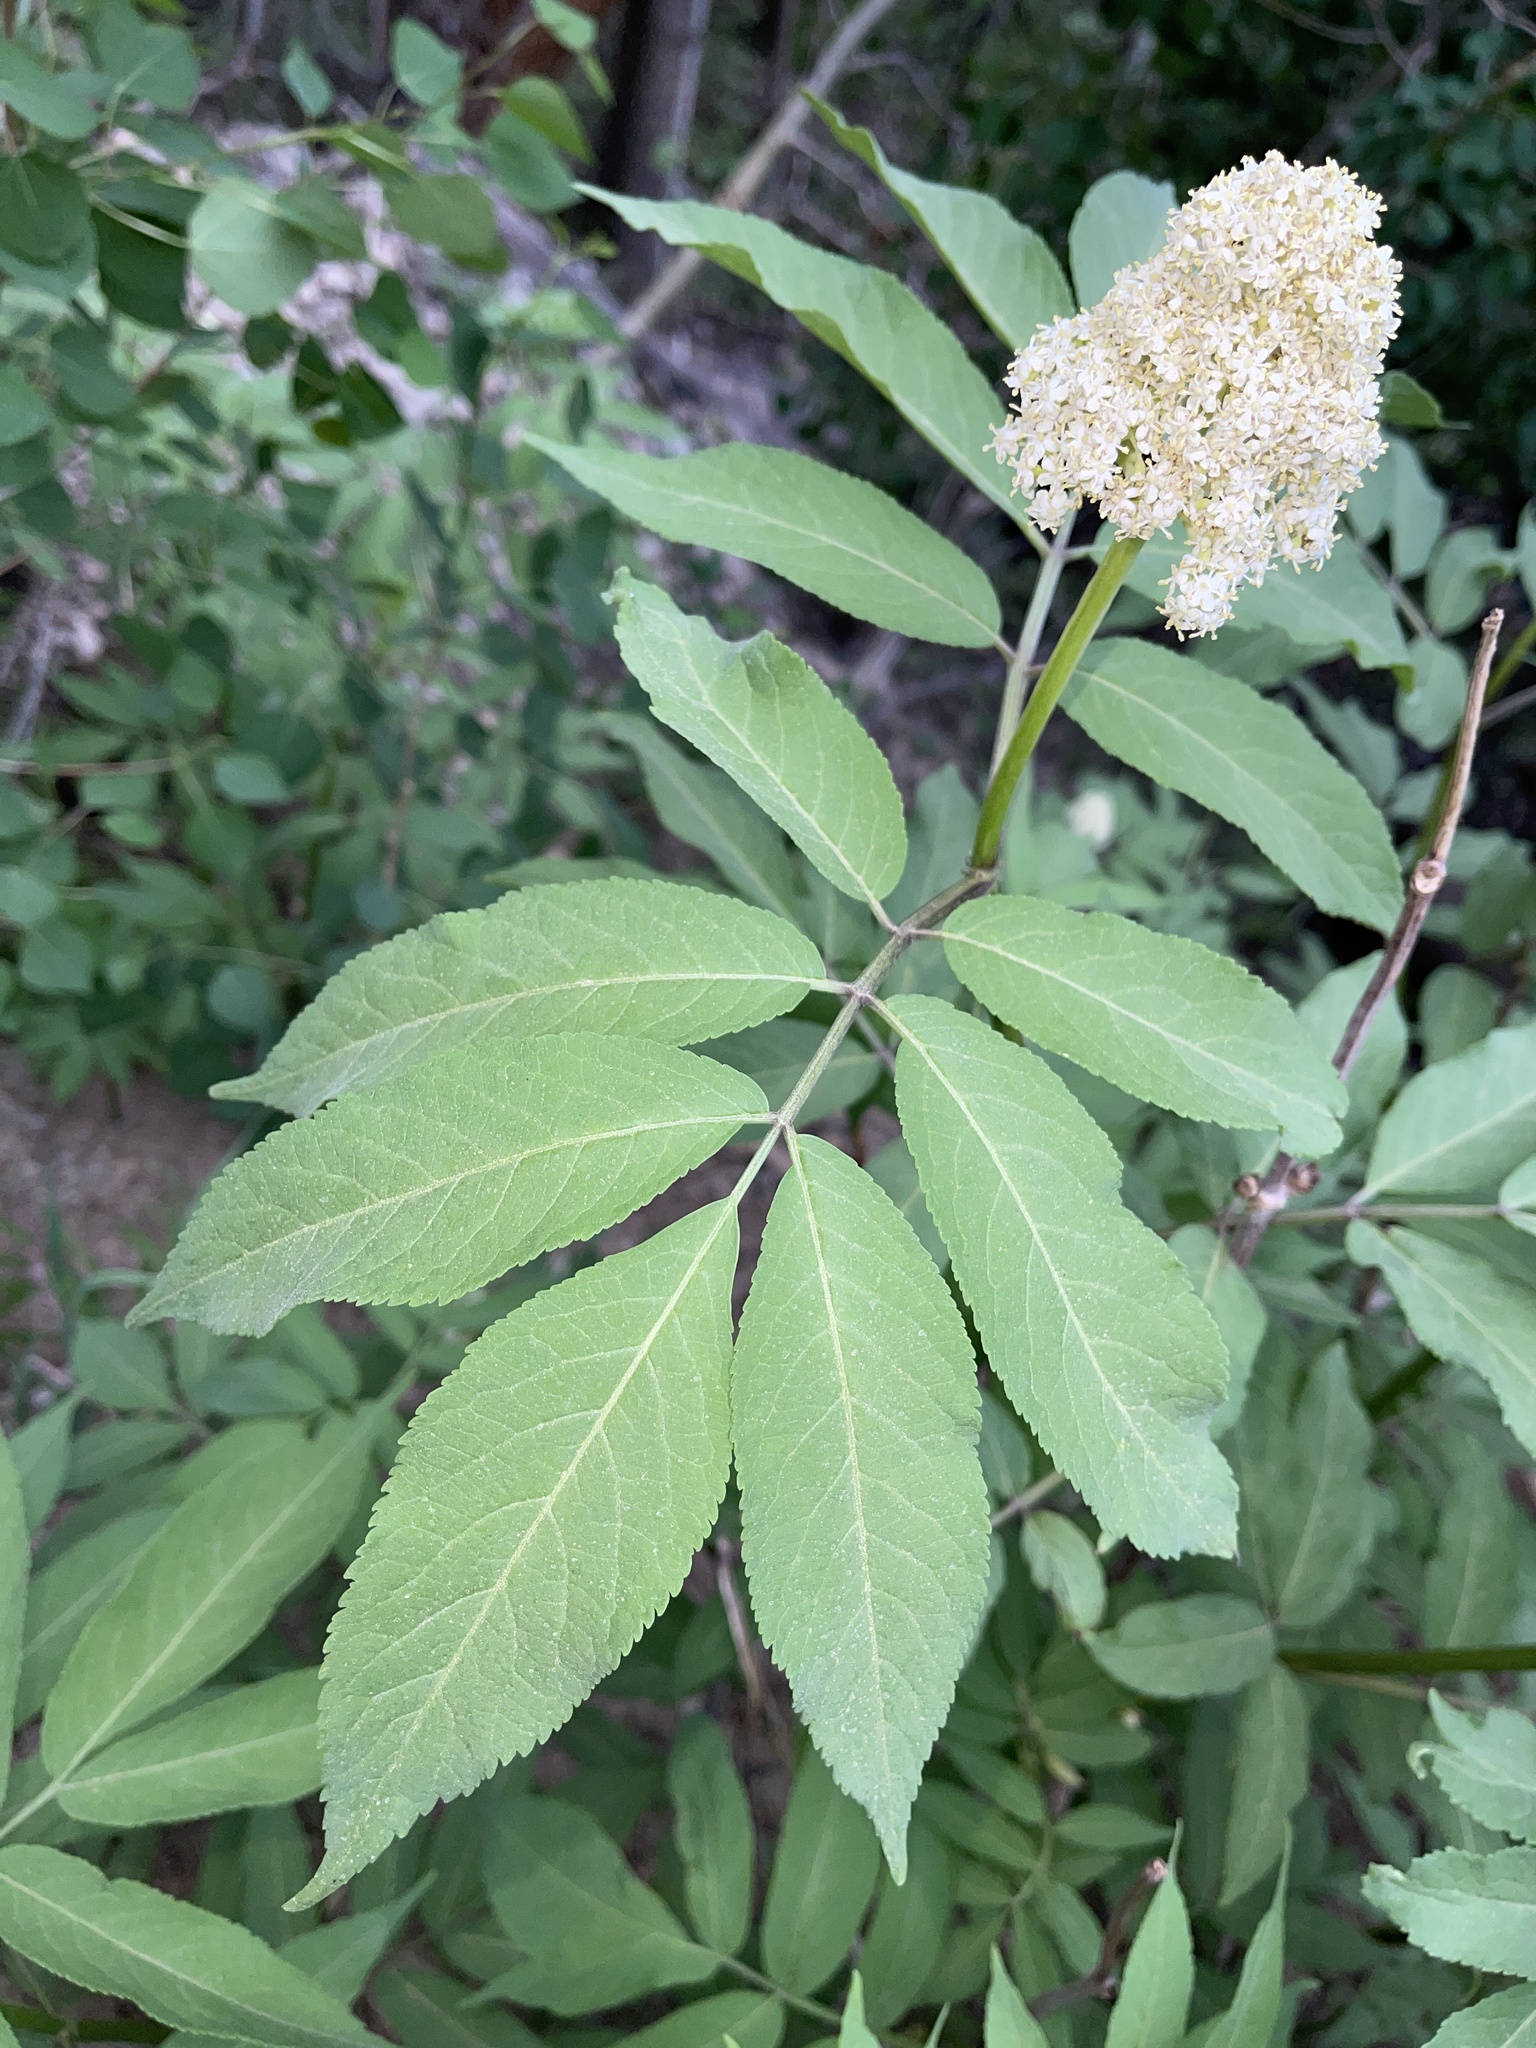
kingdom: Plantae
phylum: Tracheophyta
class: Magnoliopsida
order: Dipsacales
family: Viburnaceae
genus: Sambucus
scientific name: Sambucus racemosa
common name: Red-berried elder
